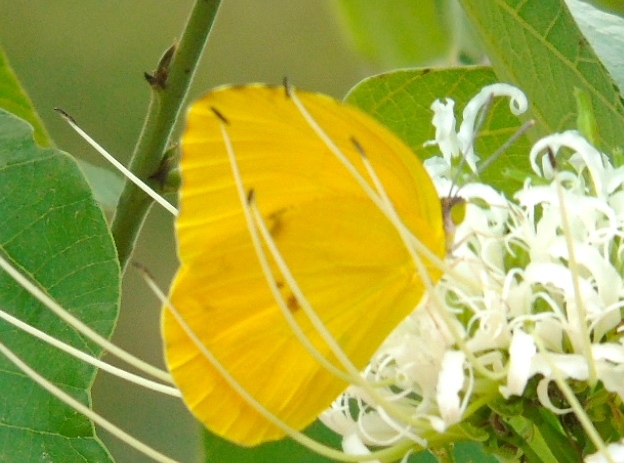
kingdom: Animalia
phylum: Arthropoda
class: Insecta
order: Lepidoptera
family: Pieridae
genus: Prestonia
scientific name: Prestonia clarki
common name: West-mexican sulphur
